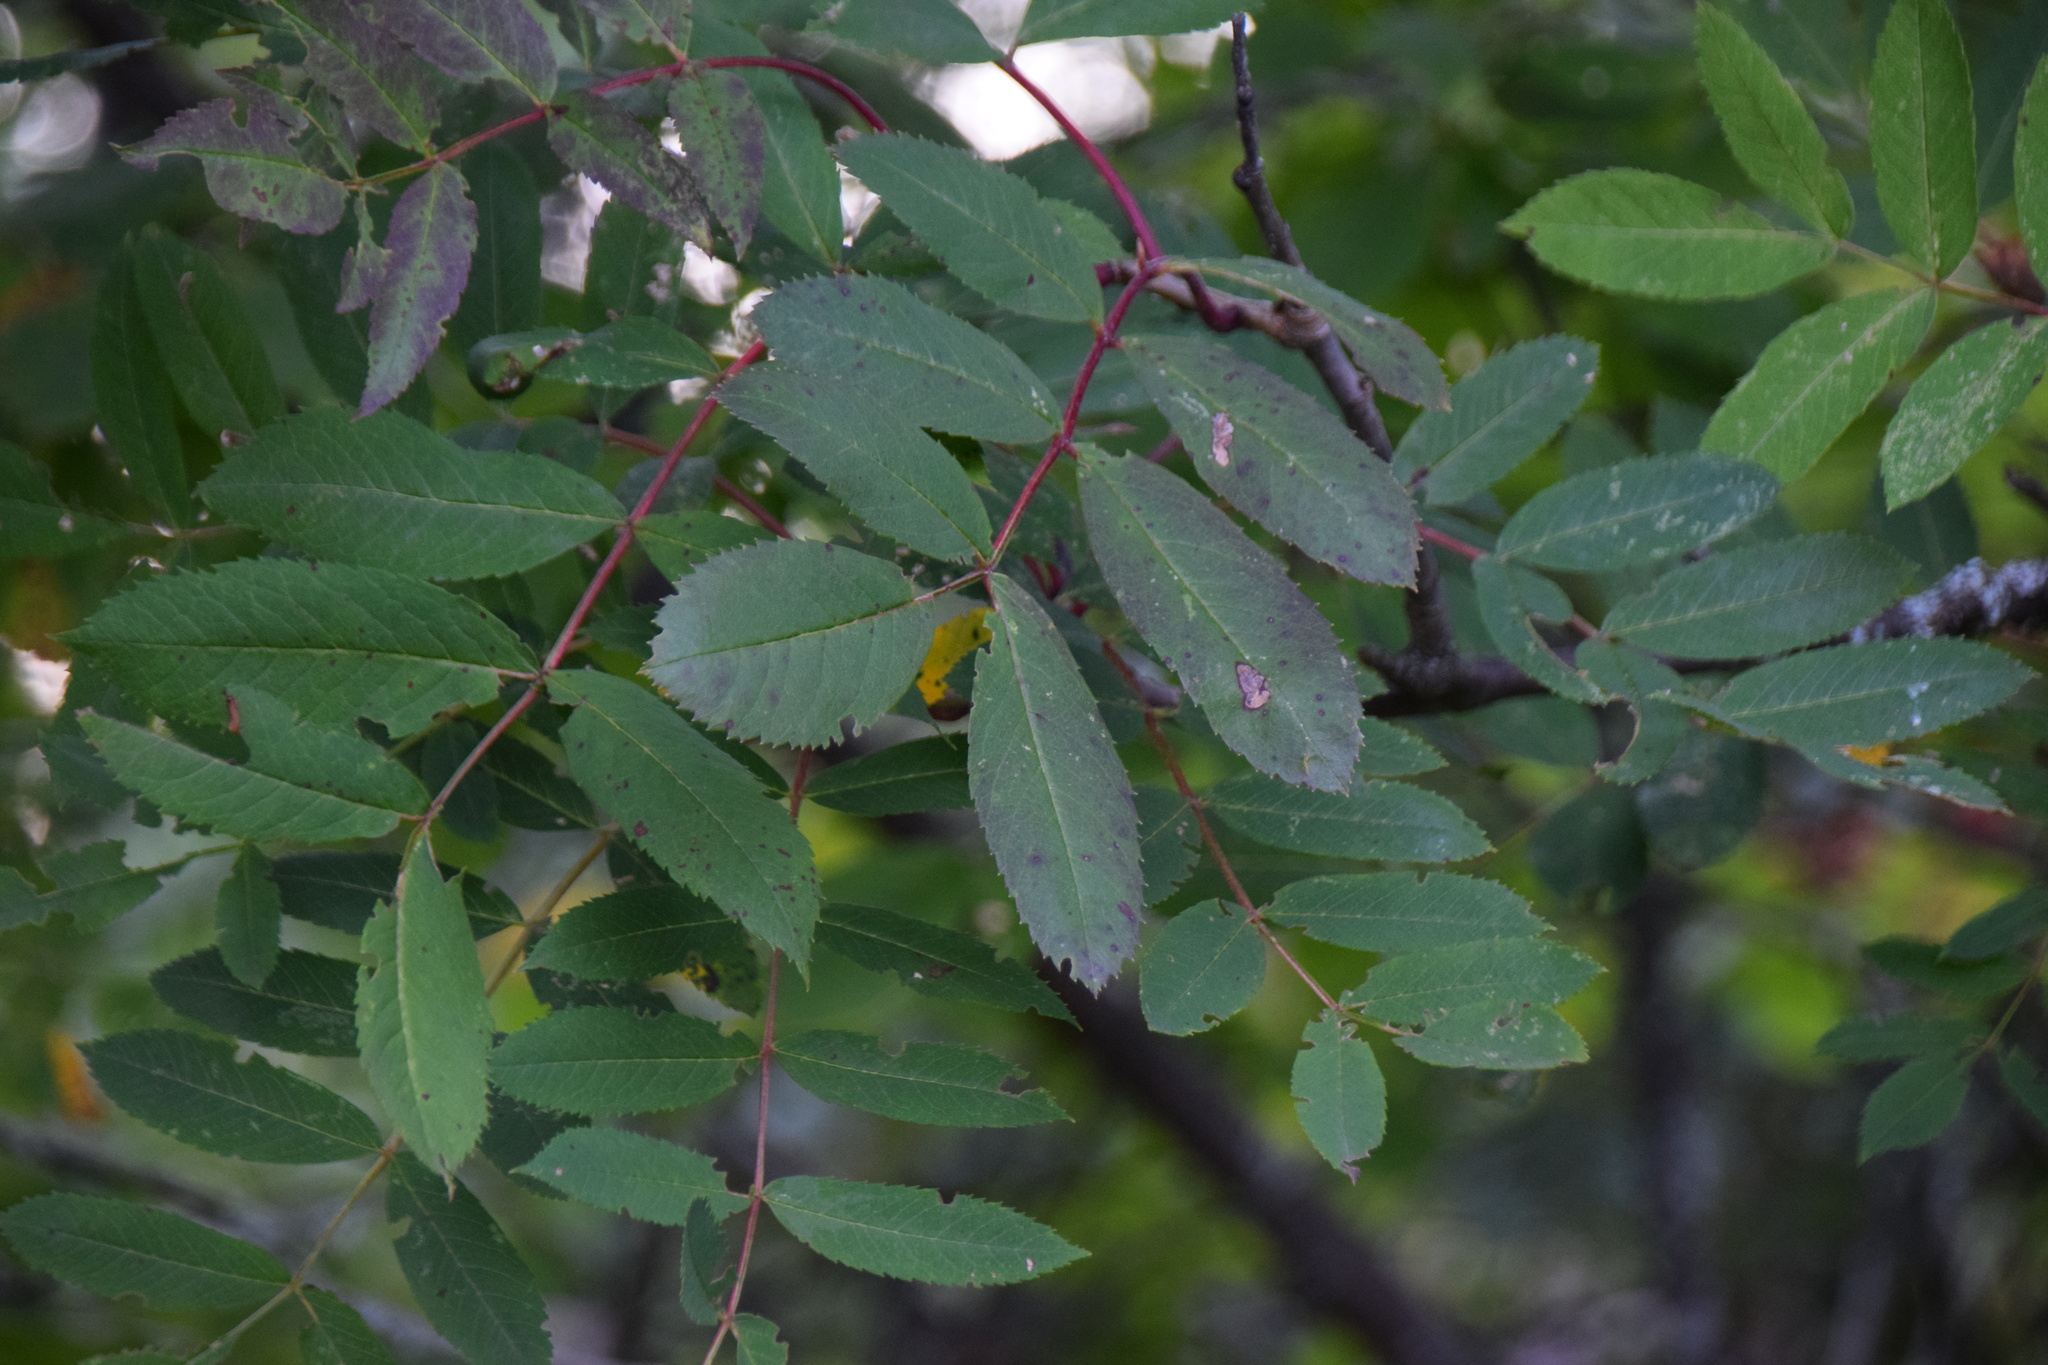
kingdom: Plantae
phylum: Tracheophyta
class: Magnoliopsida
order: Rosales
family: Rosaceae
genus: Sorbus
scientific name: Sorbus decora
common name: Northern mountain-ash
